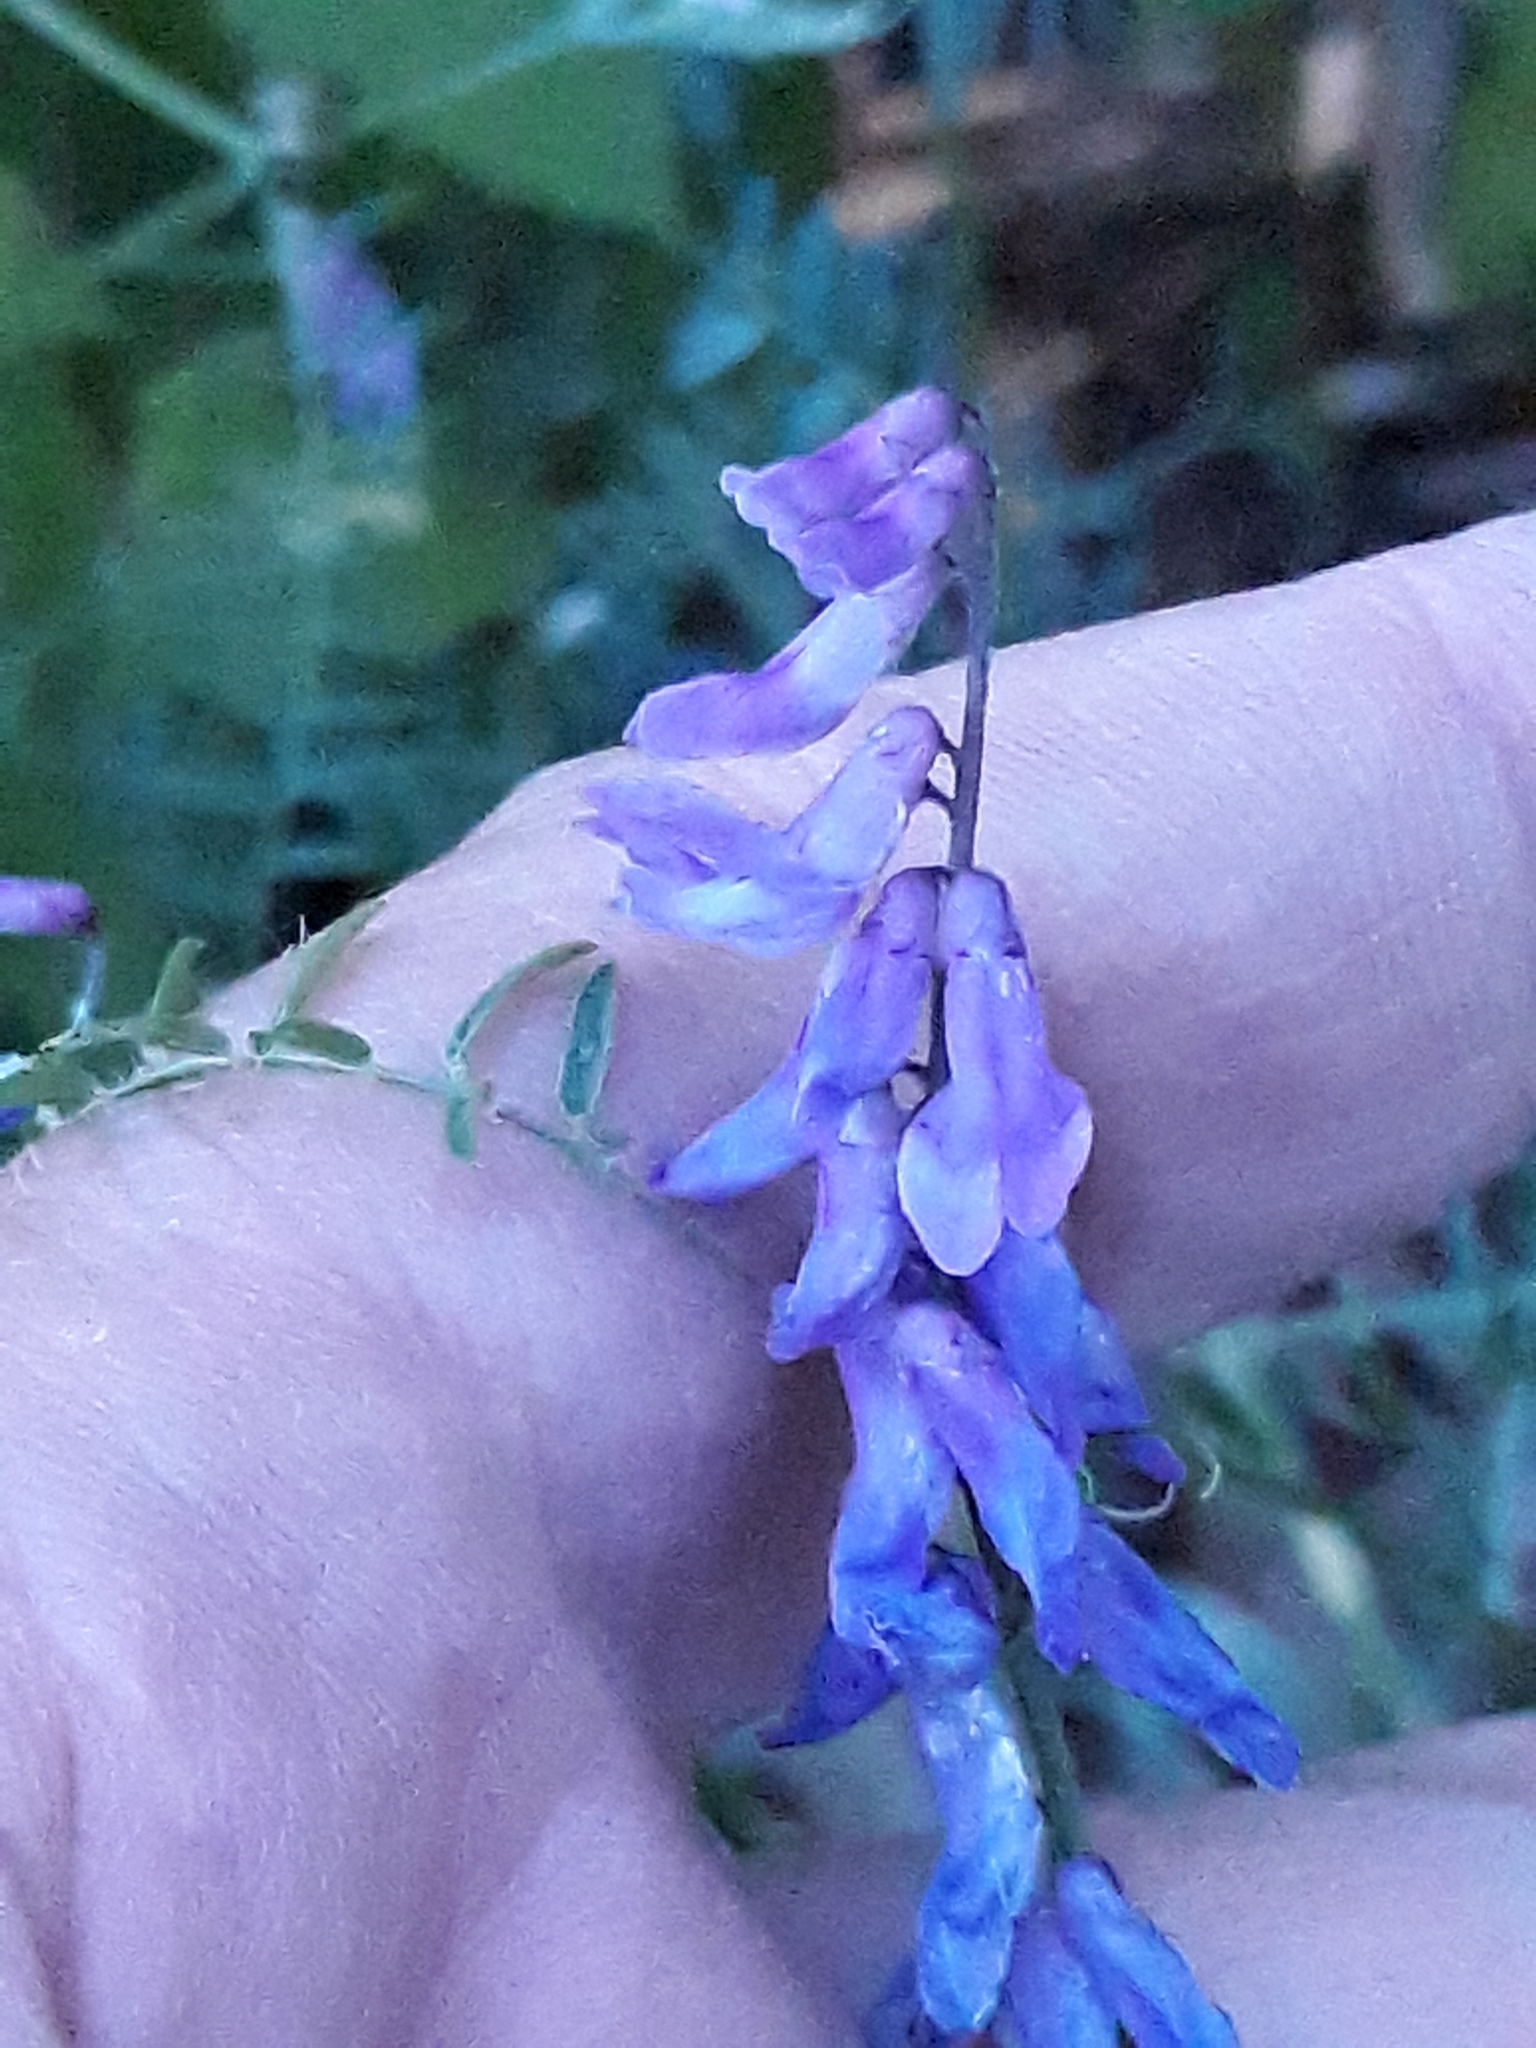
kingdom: Plantae
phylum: Tracheophyta
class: Magnoliopsida
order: Fabales
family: Fabaceae
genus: Vicia
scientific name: Vicia cracca
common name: Bird vetch
